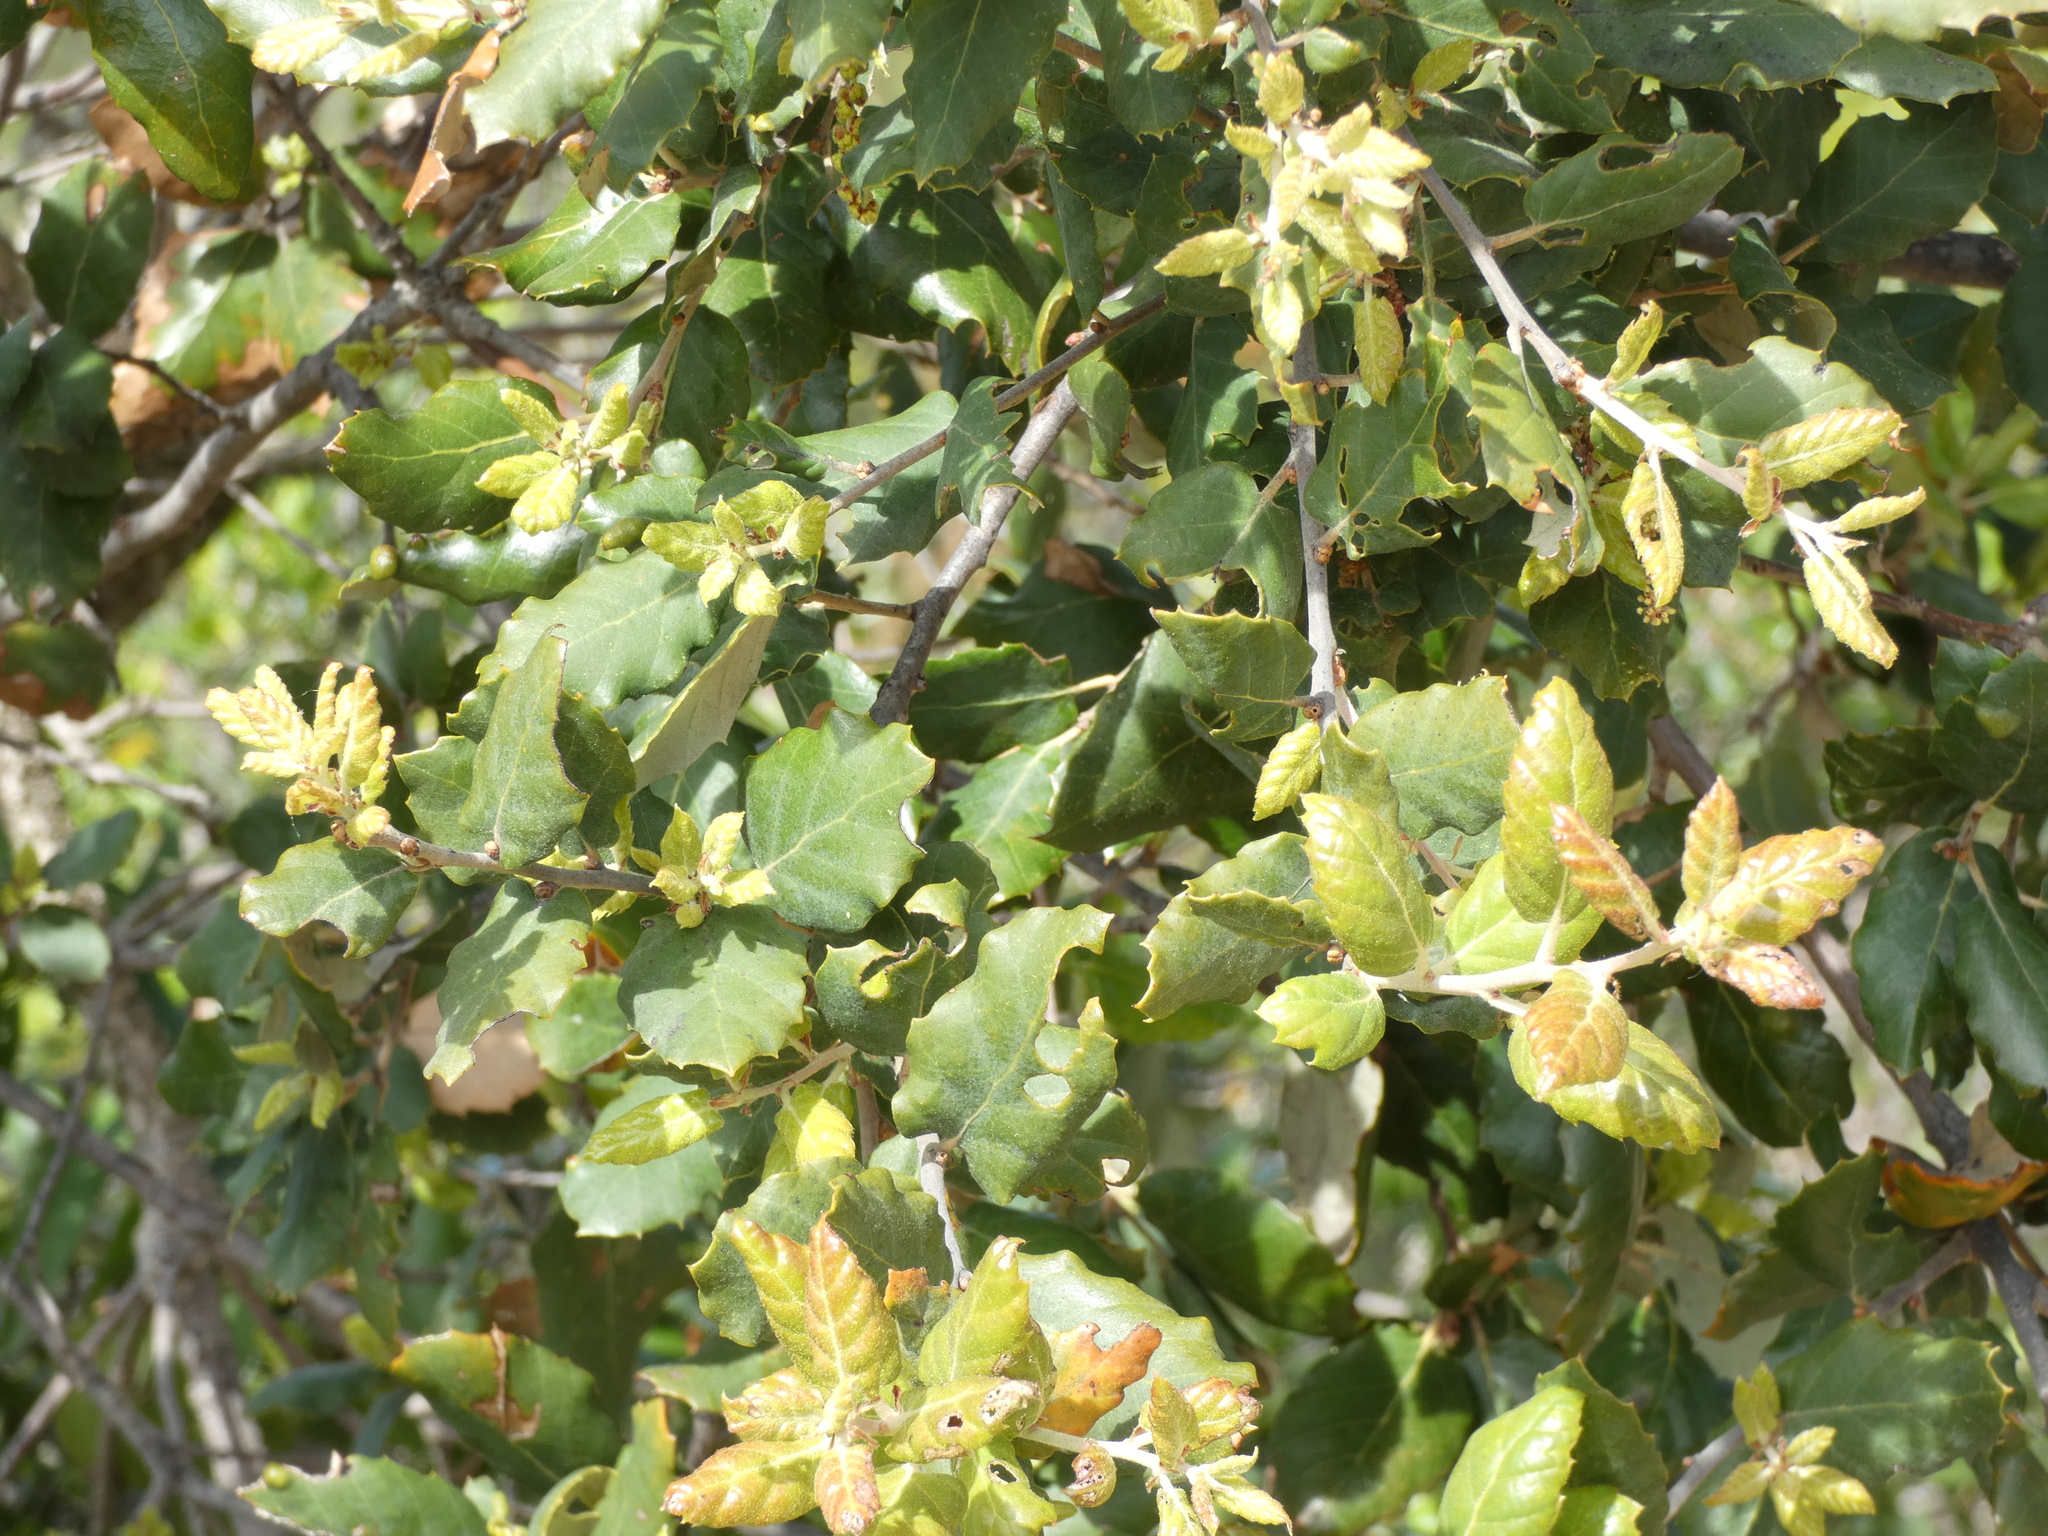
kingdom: Plantae
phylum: Tracheophyta
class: Magnoliopsida
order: Fagales
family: Fagaceae
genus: Quercus
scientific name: Quercus suber
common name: Cork oak
